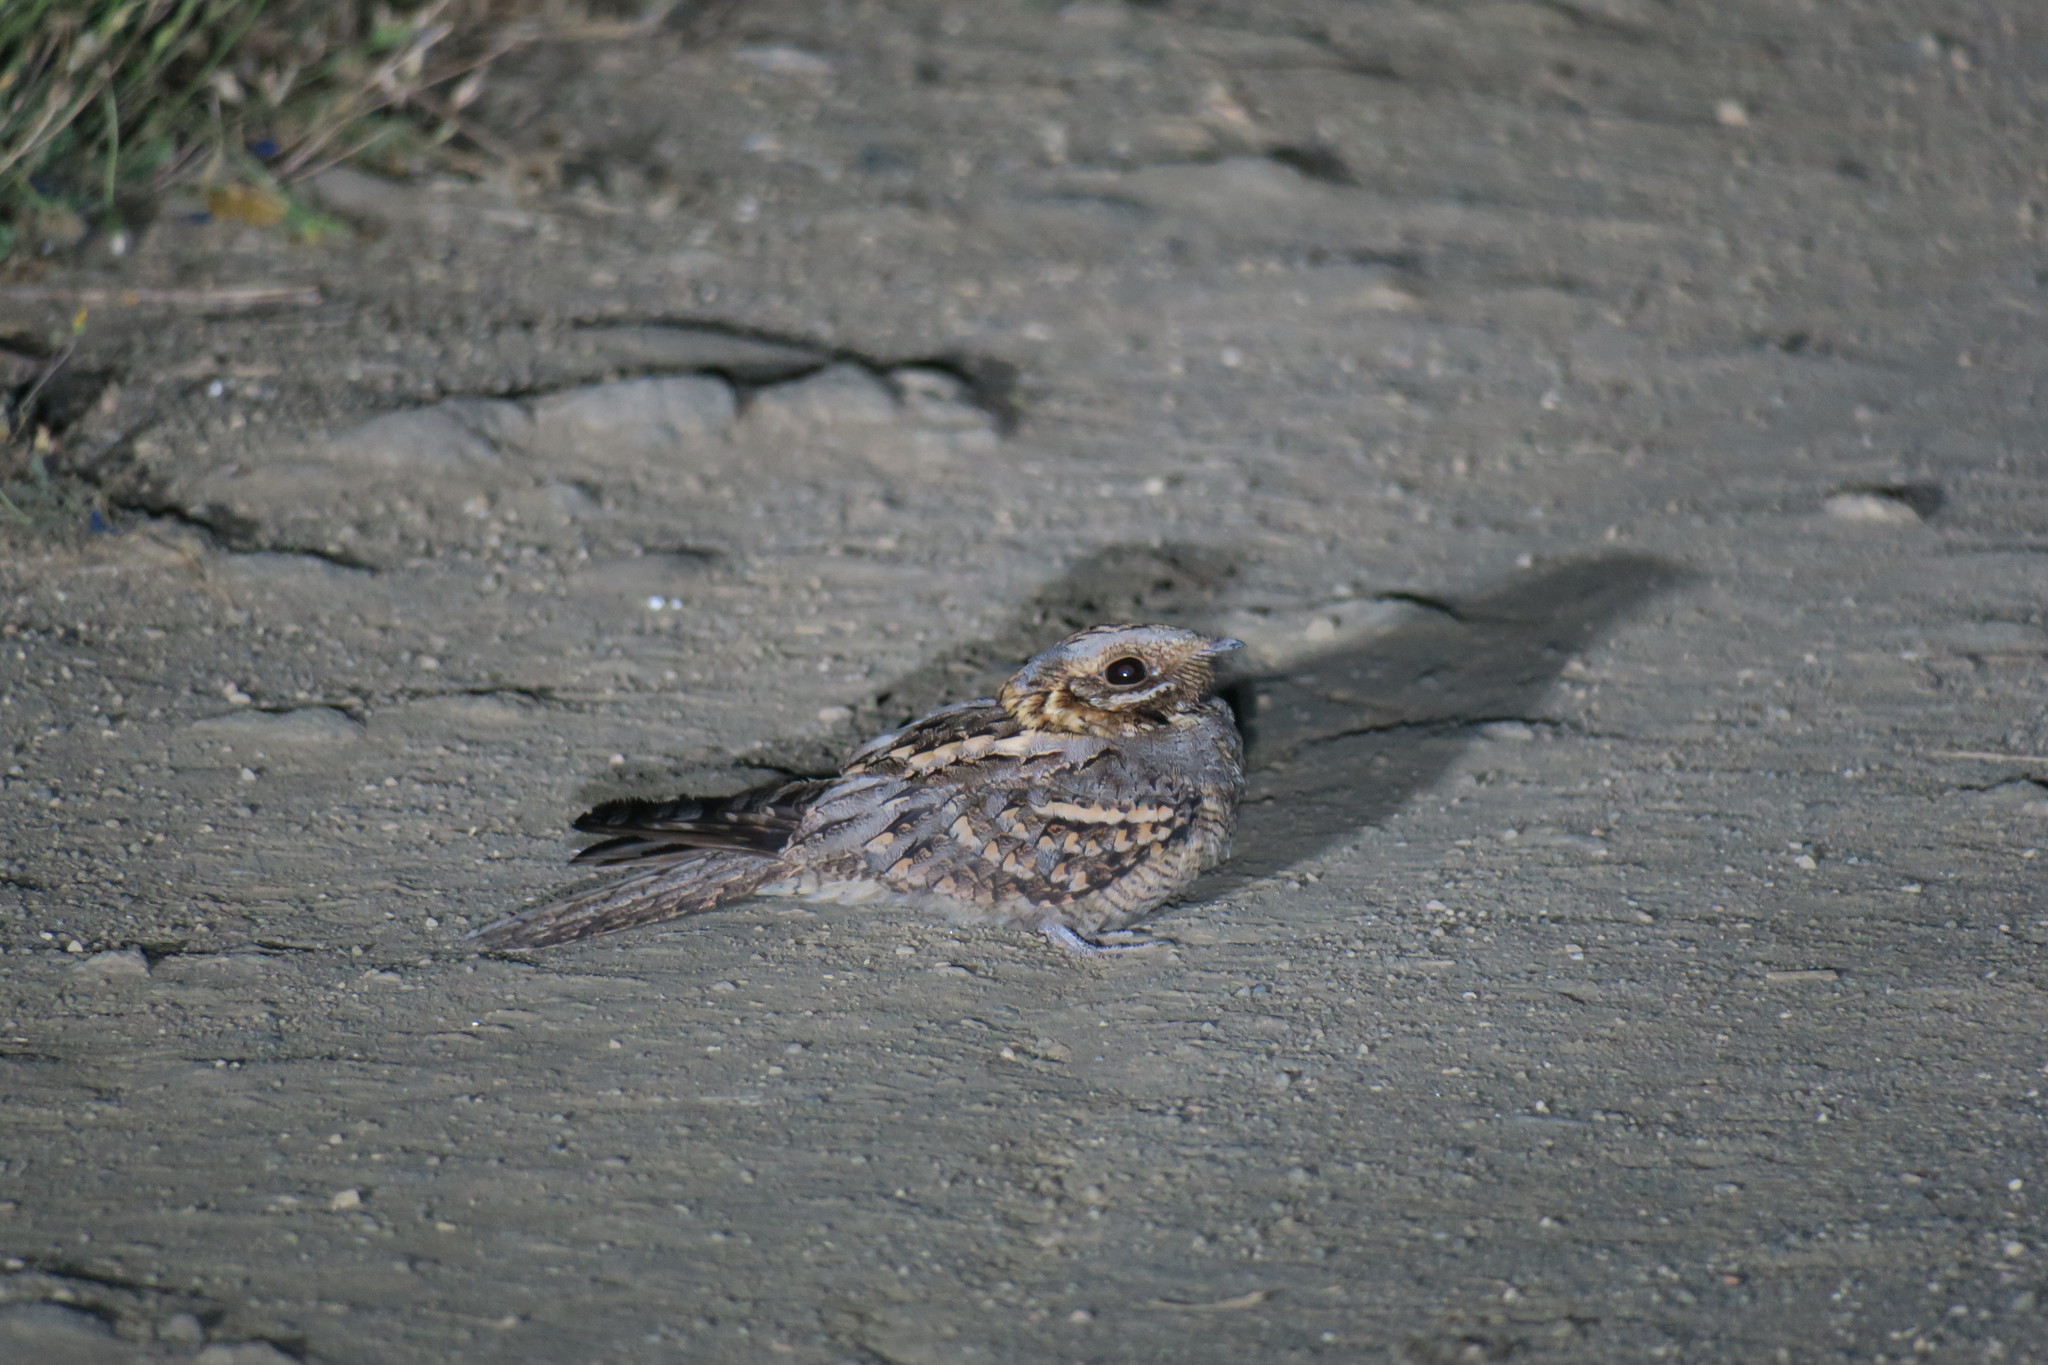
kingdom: Animalia
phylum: Chordata
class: Aves
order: Caprimulgiformes
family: Caprimulgidae
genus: Caprimulgus
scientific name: Caprimulgus ruficollis
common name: Red-necked nightjar
